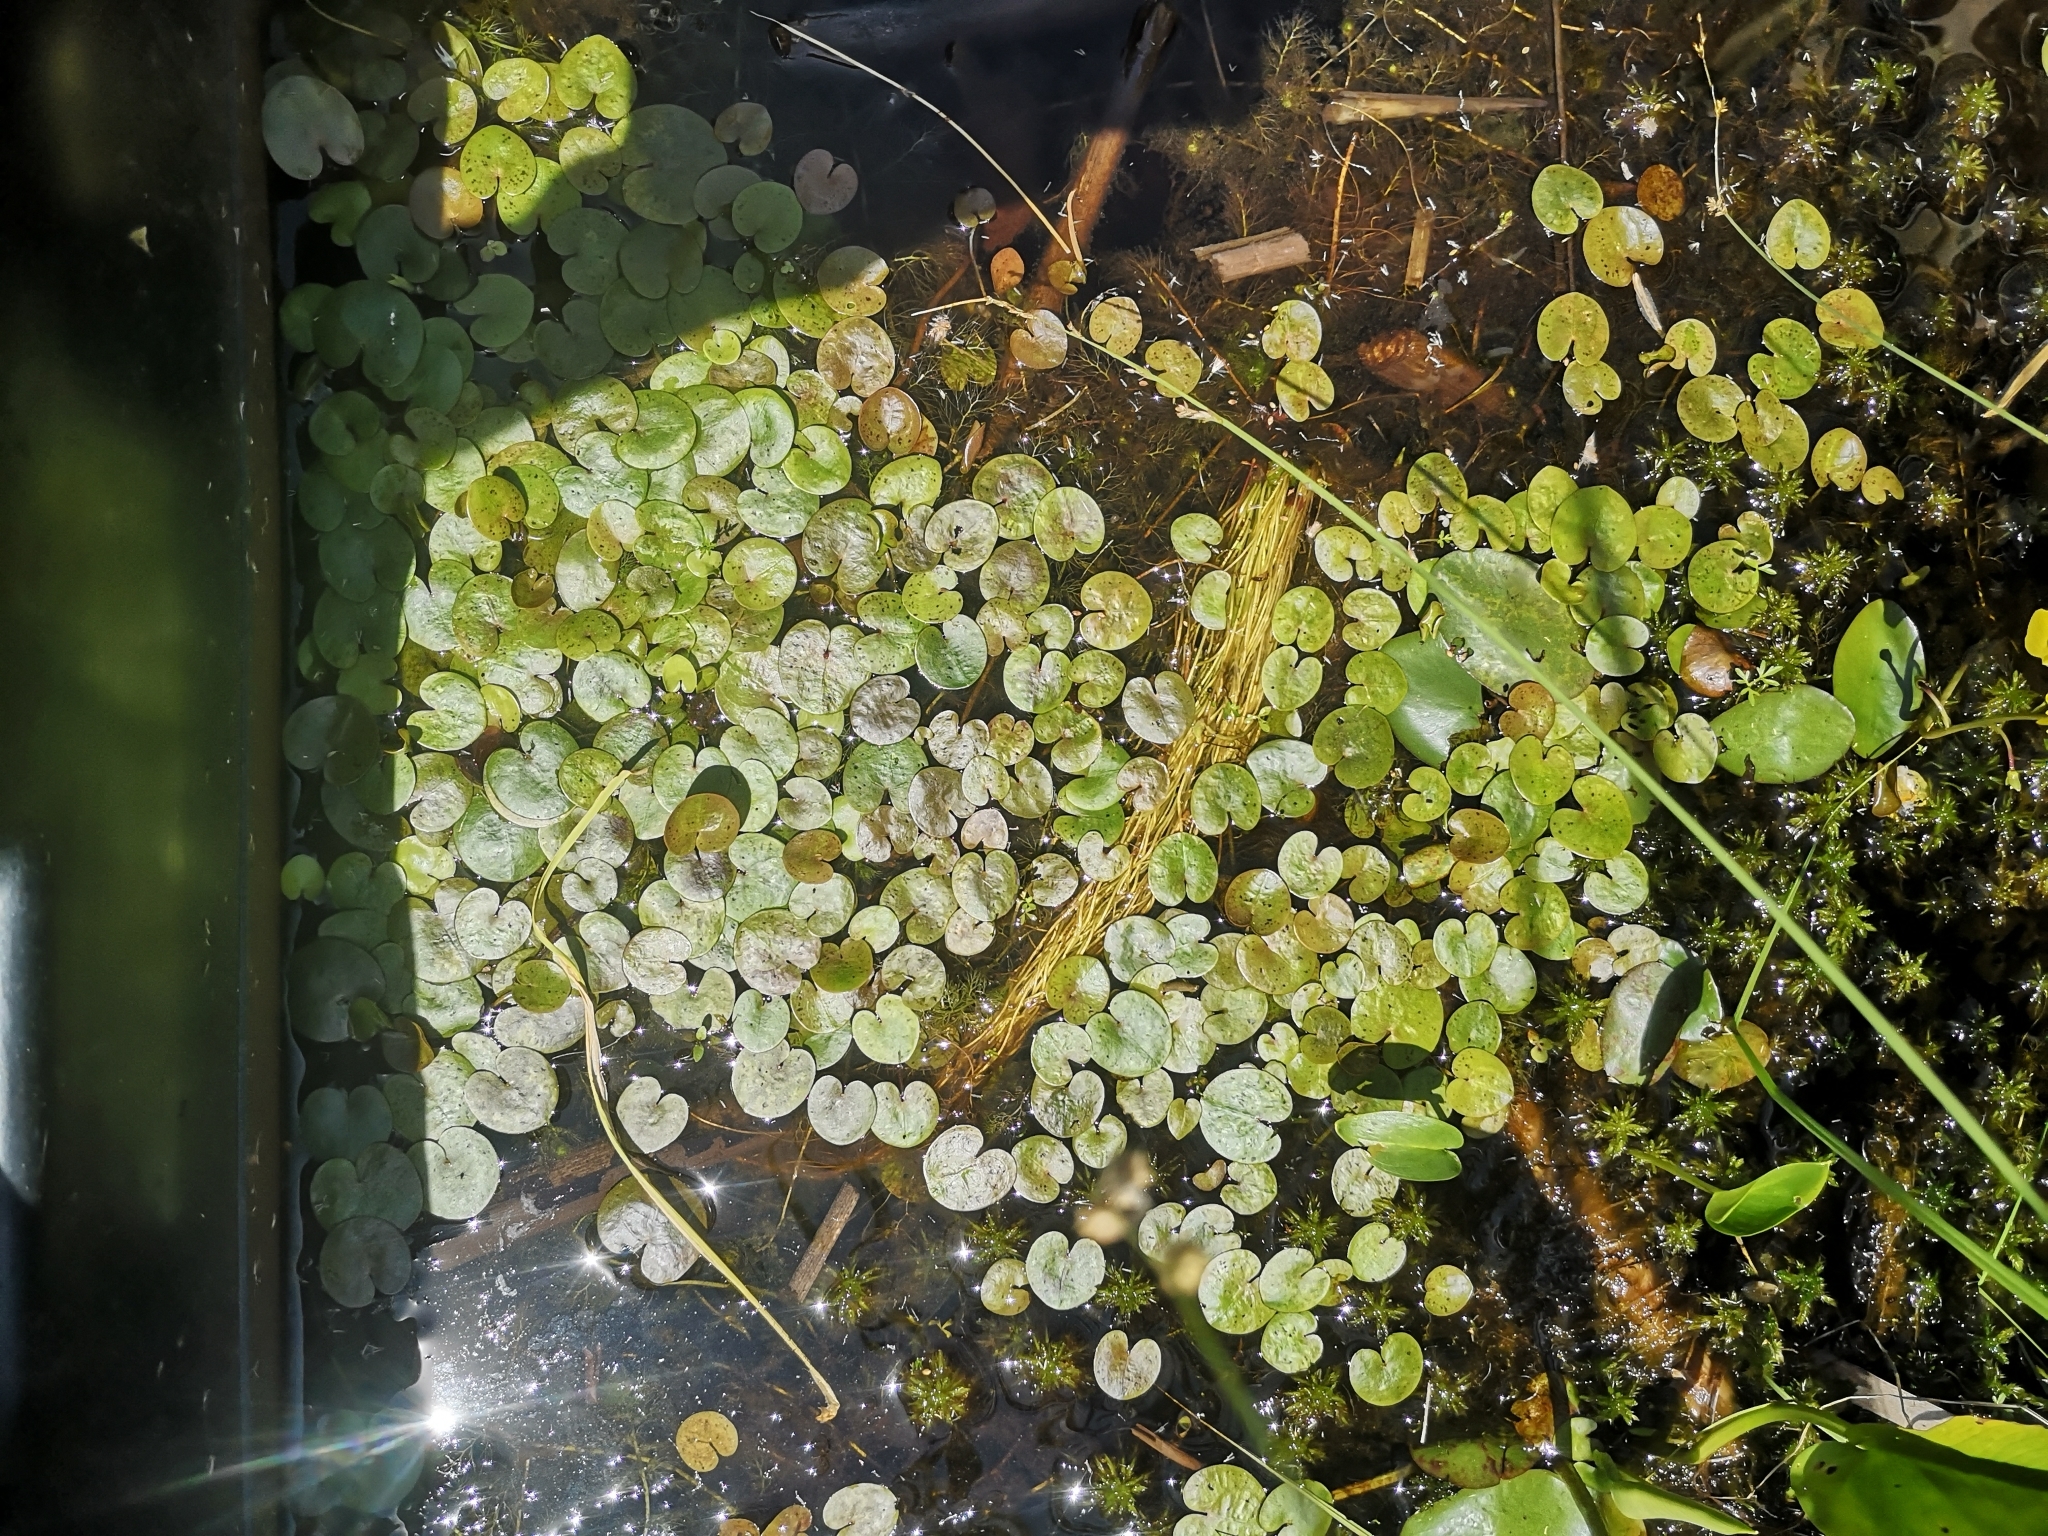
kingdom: Plantae
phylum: Tracheophyta
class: Liliopsida
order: Alismatales
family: Hydrocharitaceae
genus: Hydrocharis
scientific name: Hydrocharis morsus-ranae
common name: Frogbit
